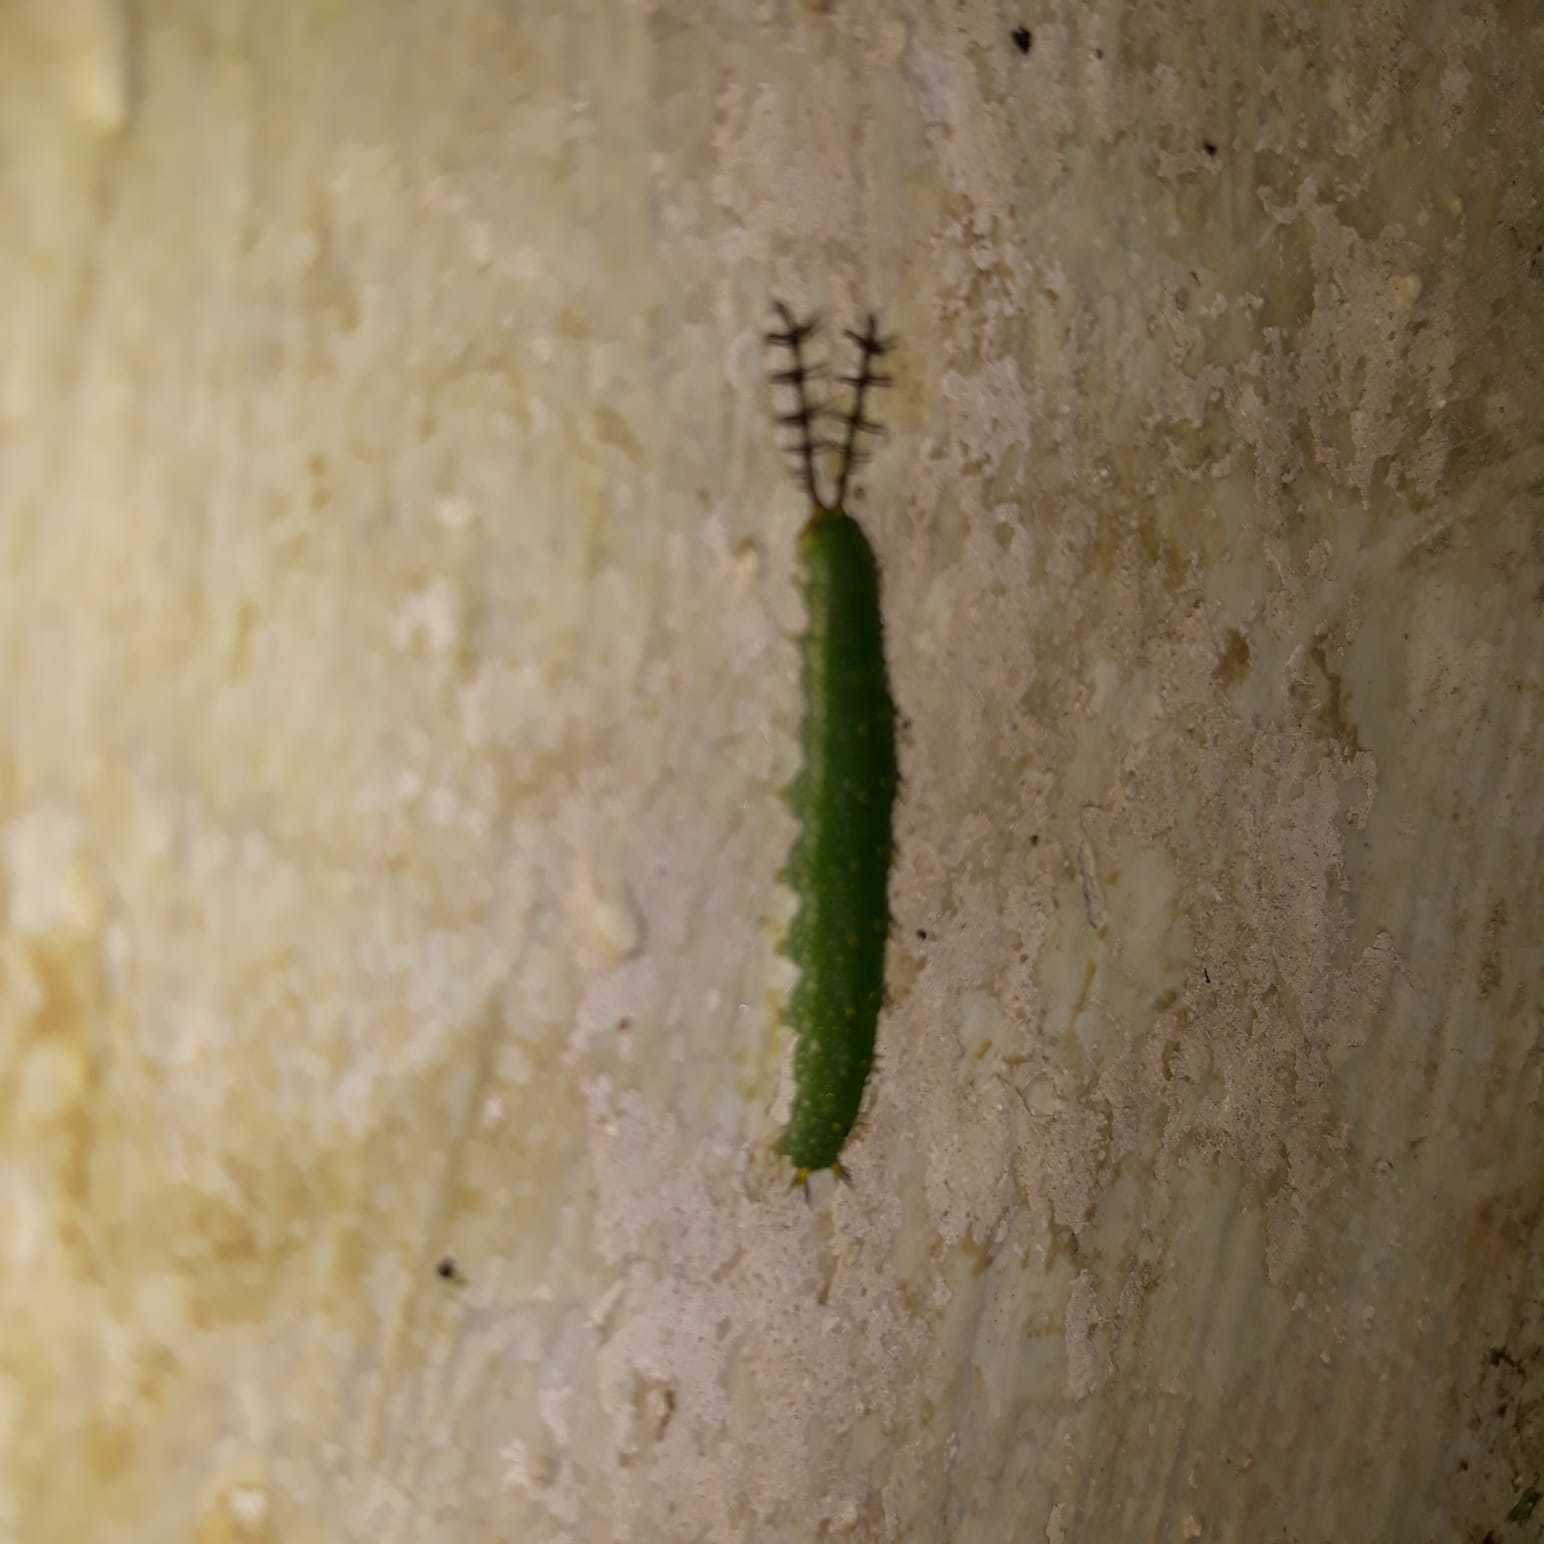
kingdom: Animalia
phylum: Arthropoda
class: Insecta
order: Lepidoptera
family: Nymphalidae
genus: Diaethria
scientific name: Diaethria anna
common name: Anna’s eighty-eight
